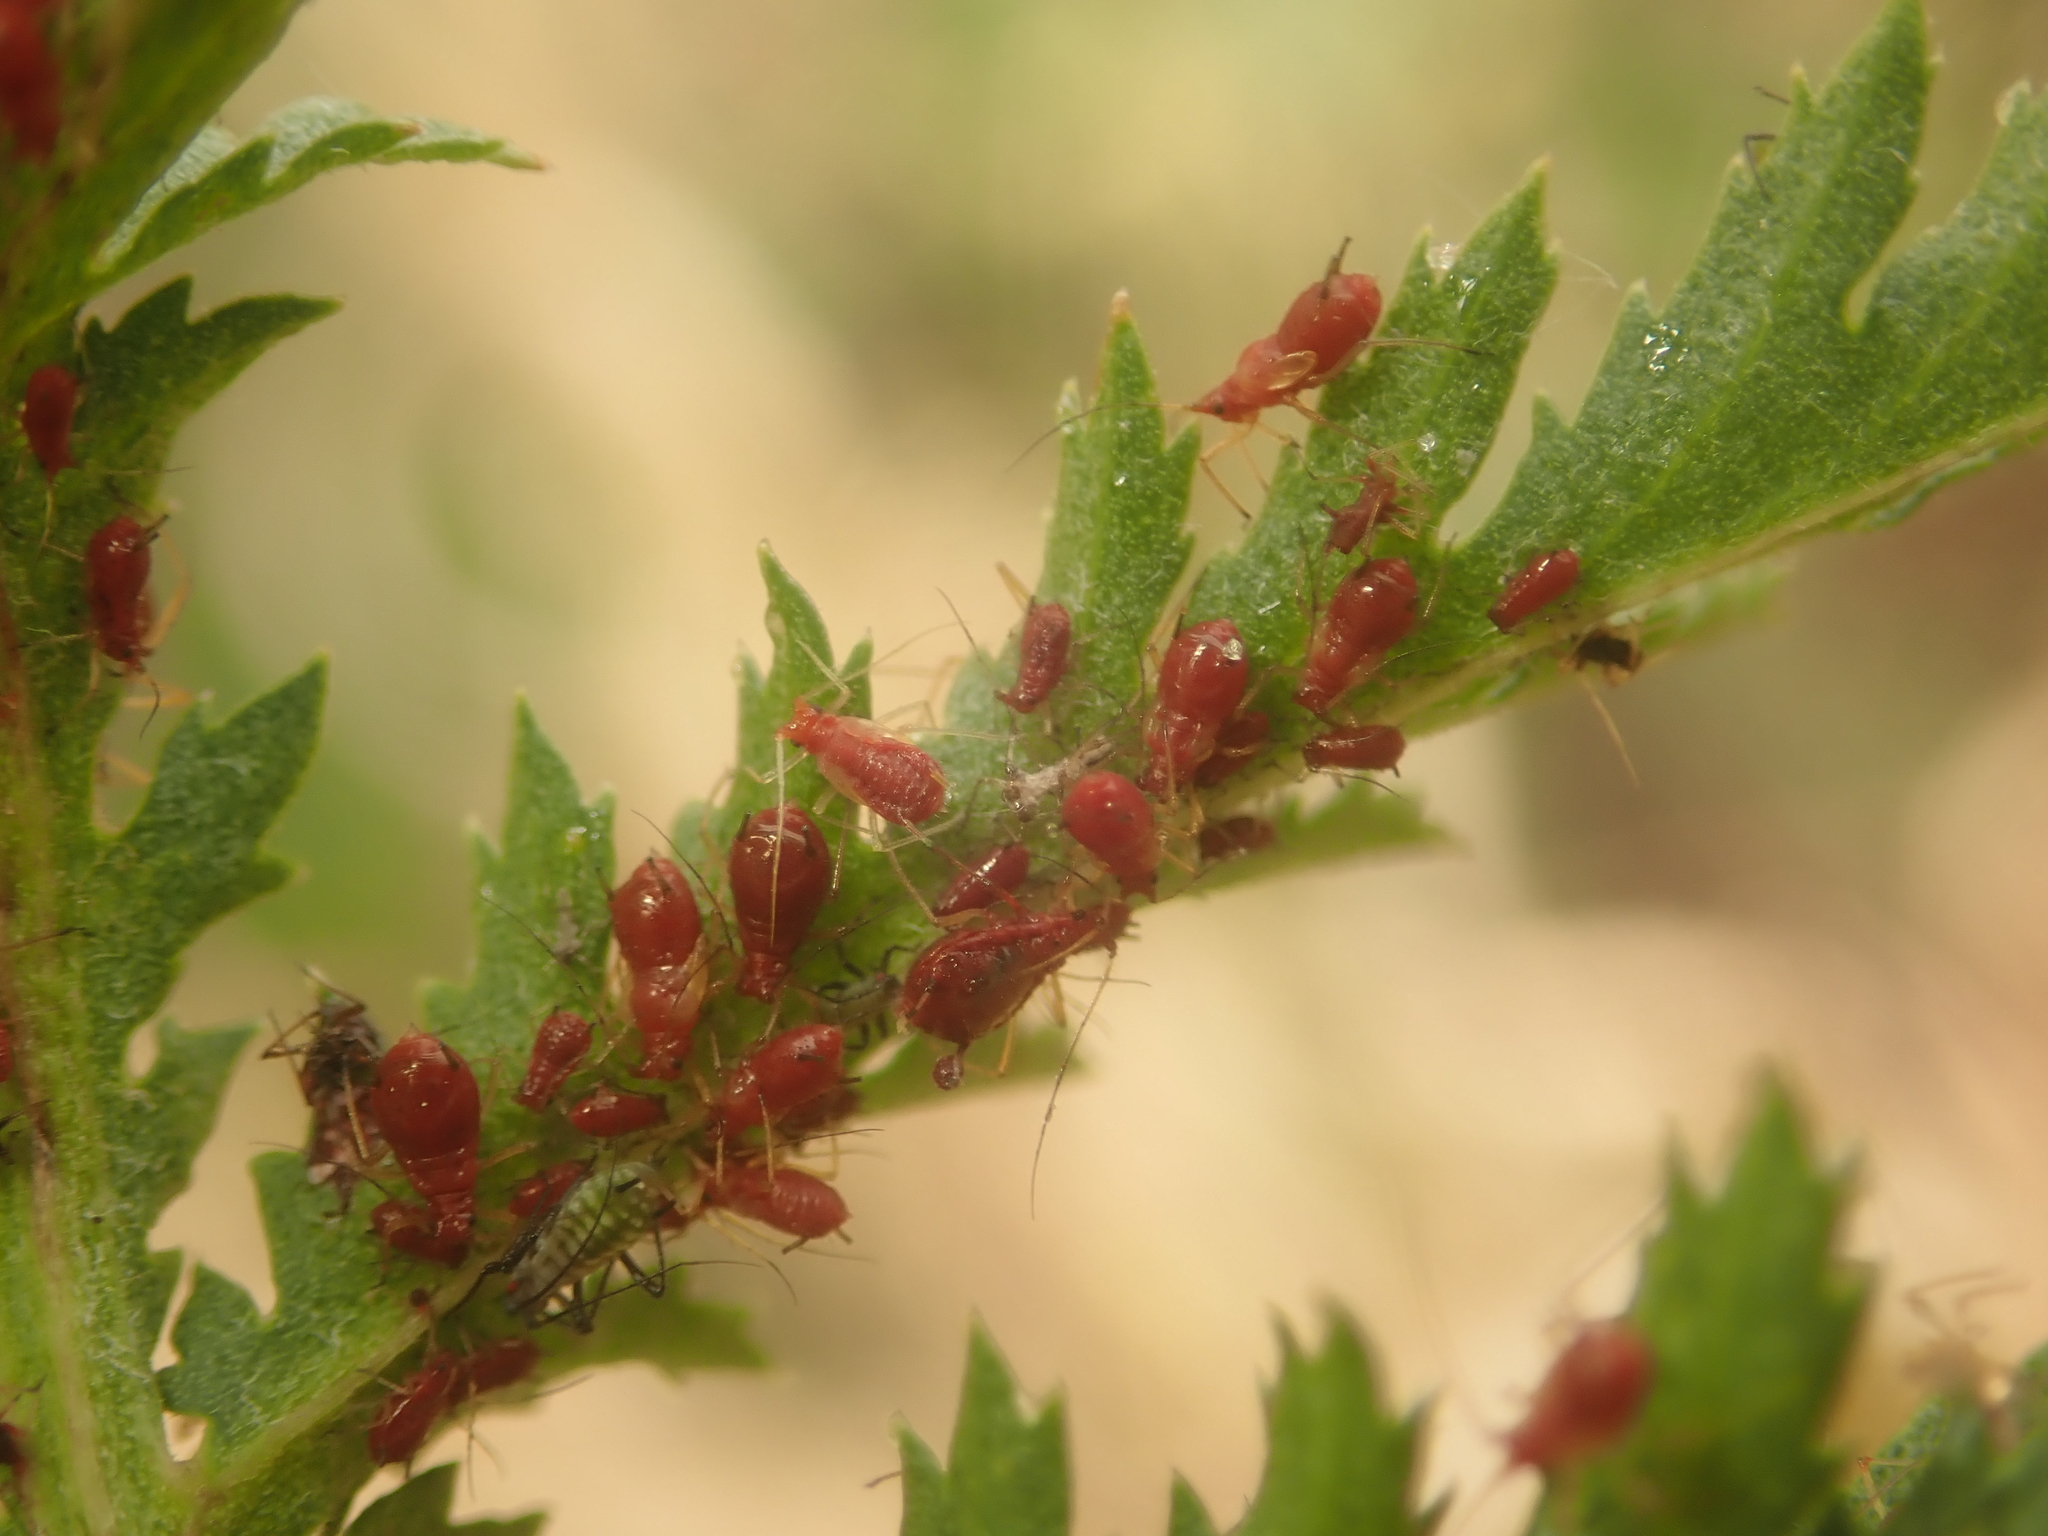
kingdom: Animalia
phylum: Arthropoda
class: Insecta
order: Hemiptera
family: Aphididae
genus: Uroleucon
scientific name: Uroleucon tanaceti
